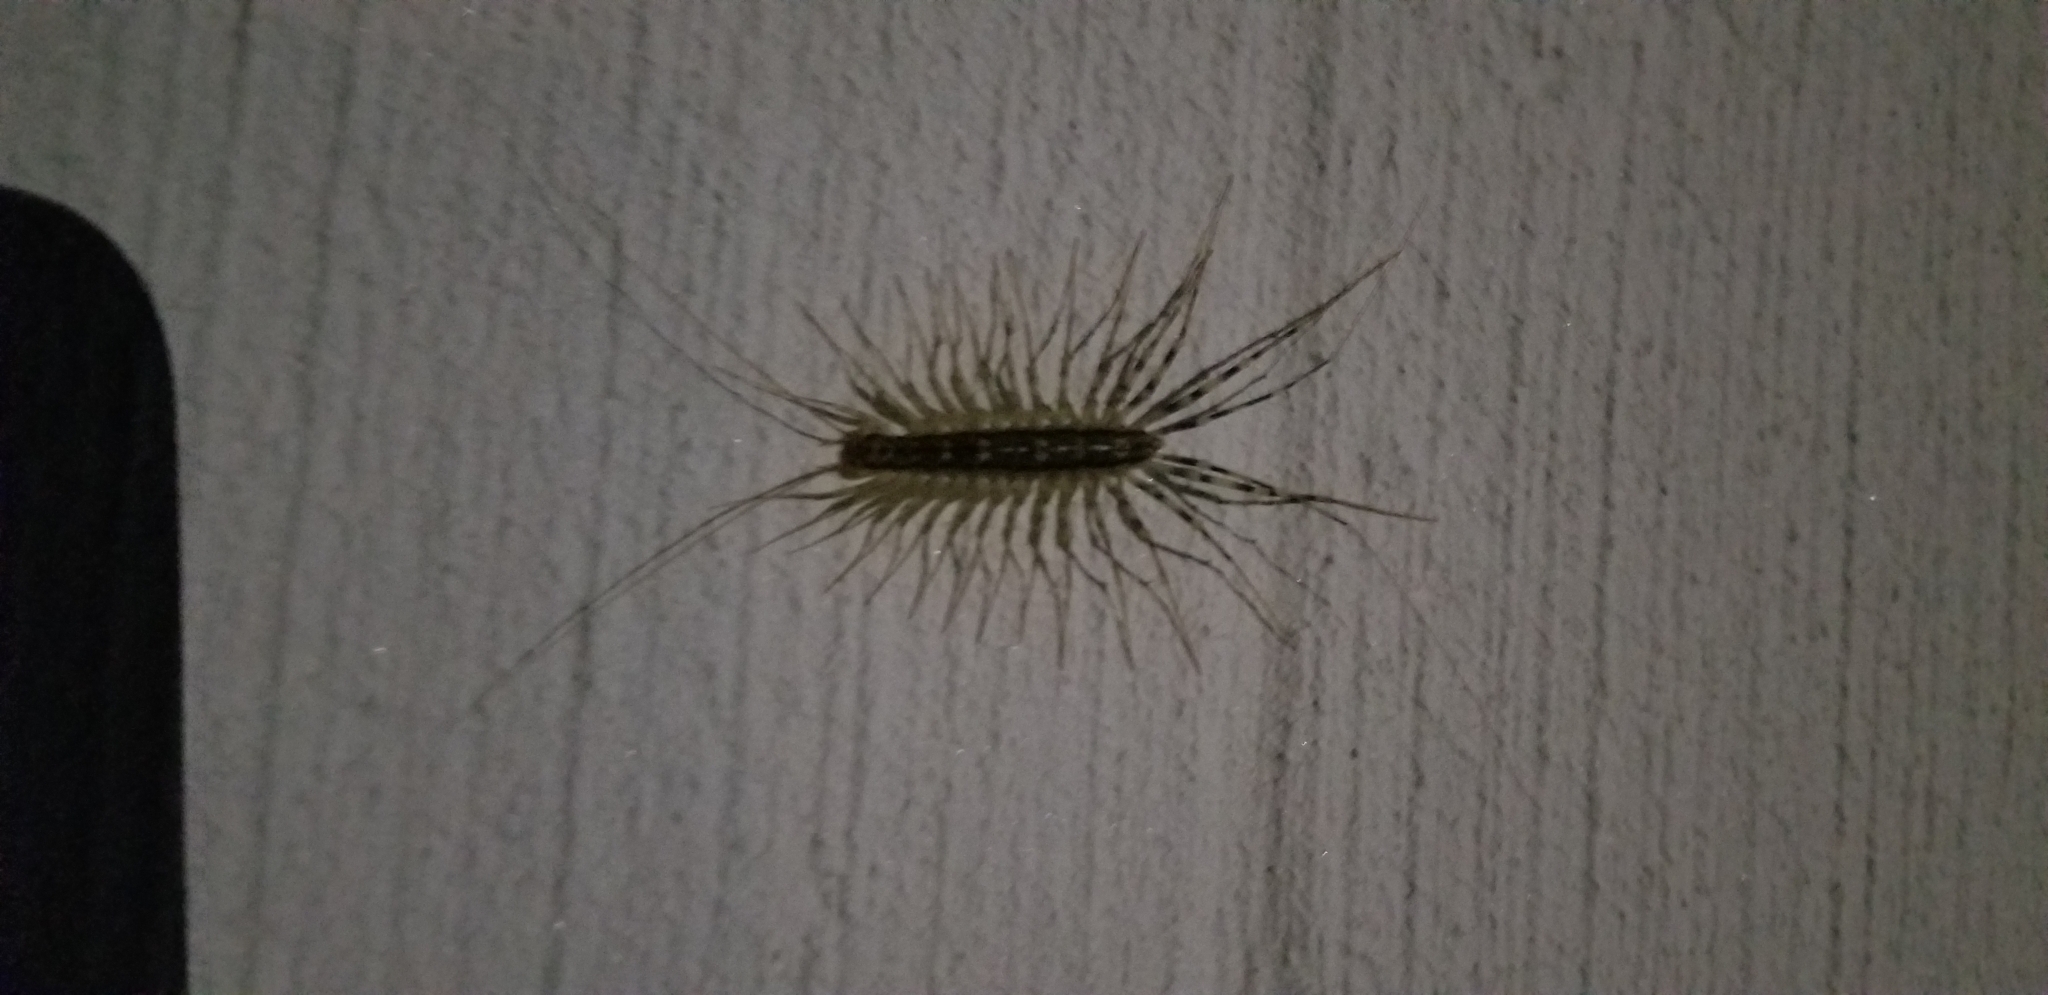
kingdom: Animalia
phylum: Arthropoda
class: Chilopoda
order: Scutigeromorpha
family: Scutigeridae
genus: Scutigera
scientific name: Scutigera coleoptrata
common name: House centipede
